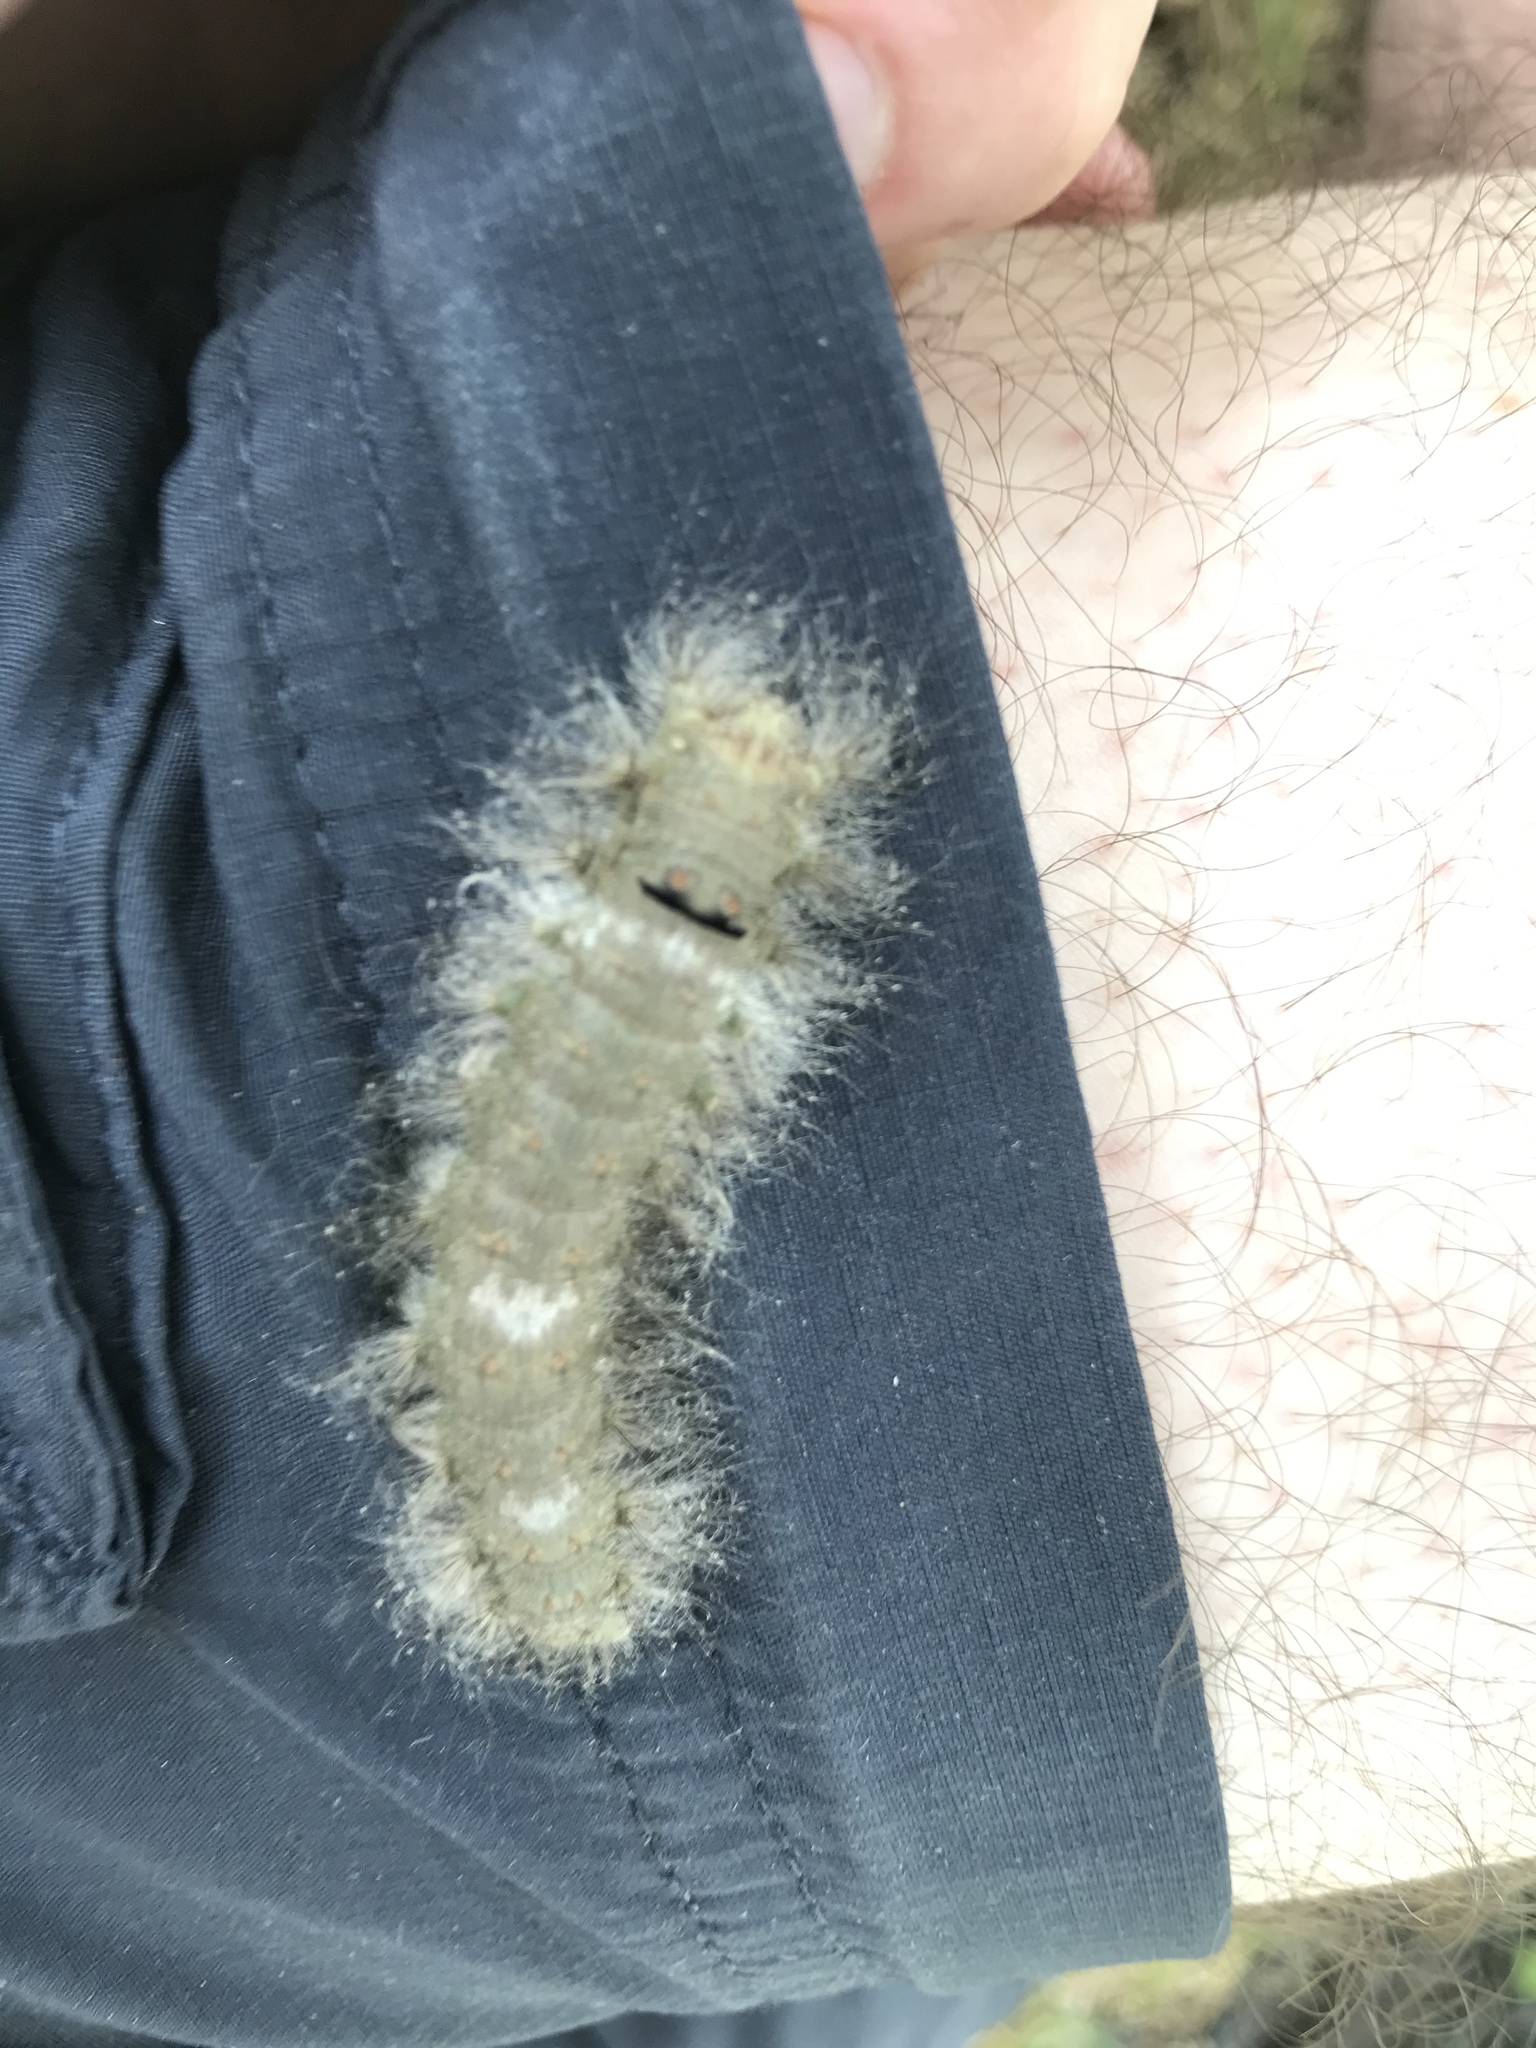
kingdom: Animalia
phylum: Arthropoda
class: Insecta
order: Lepidoptera
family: Lasiocampidae
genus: Tolype
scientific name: Tolype velleda
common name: Large tolype moth
